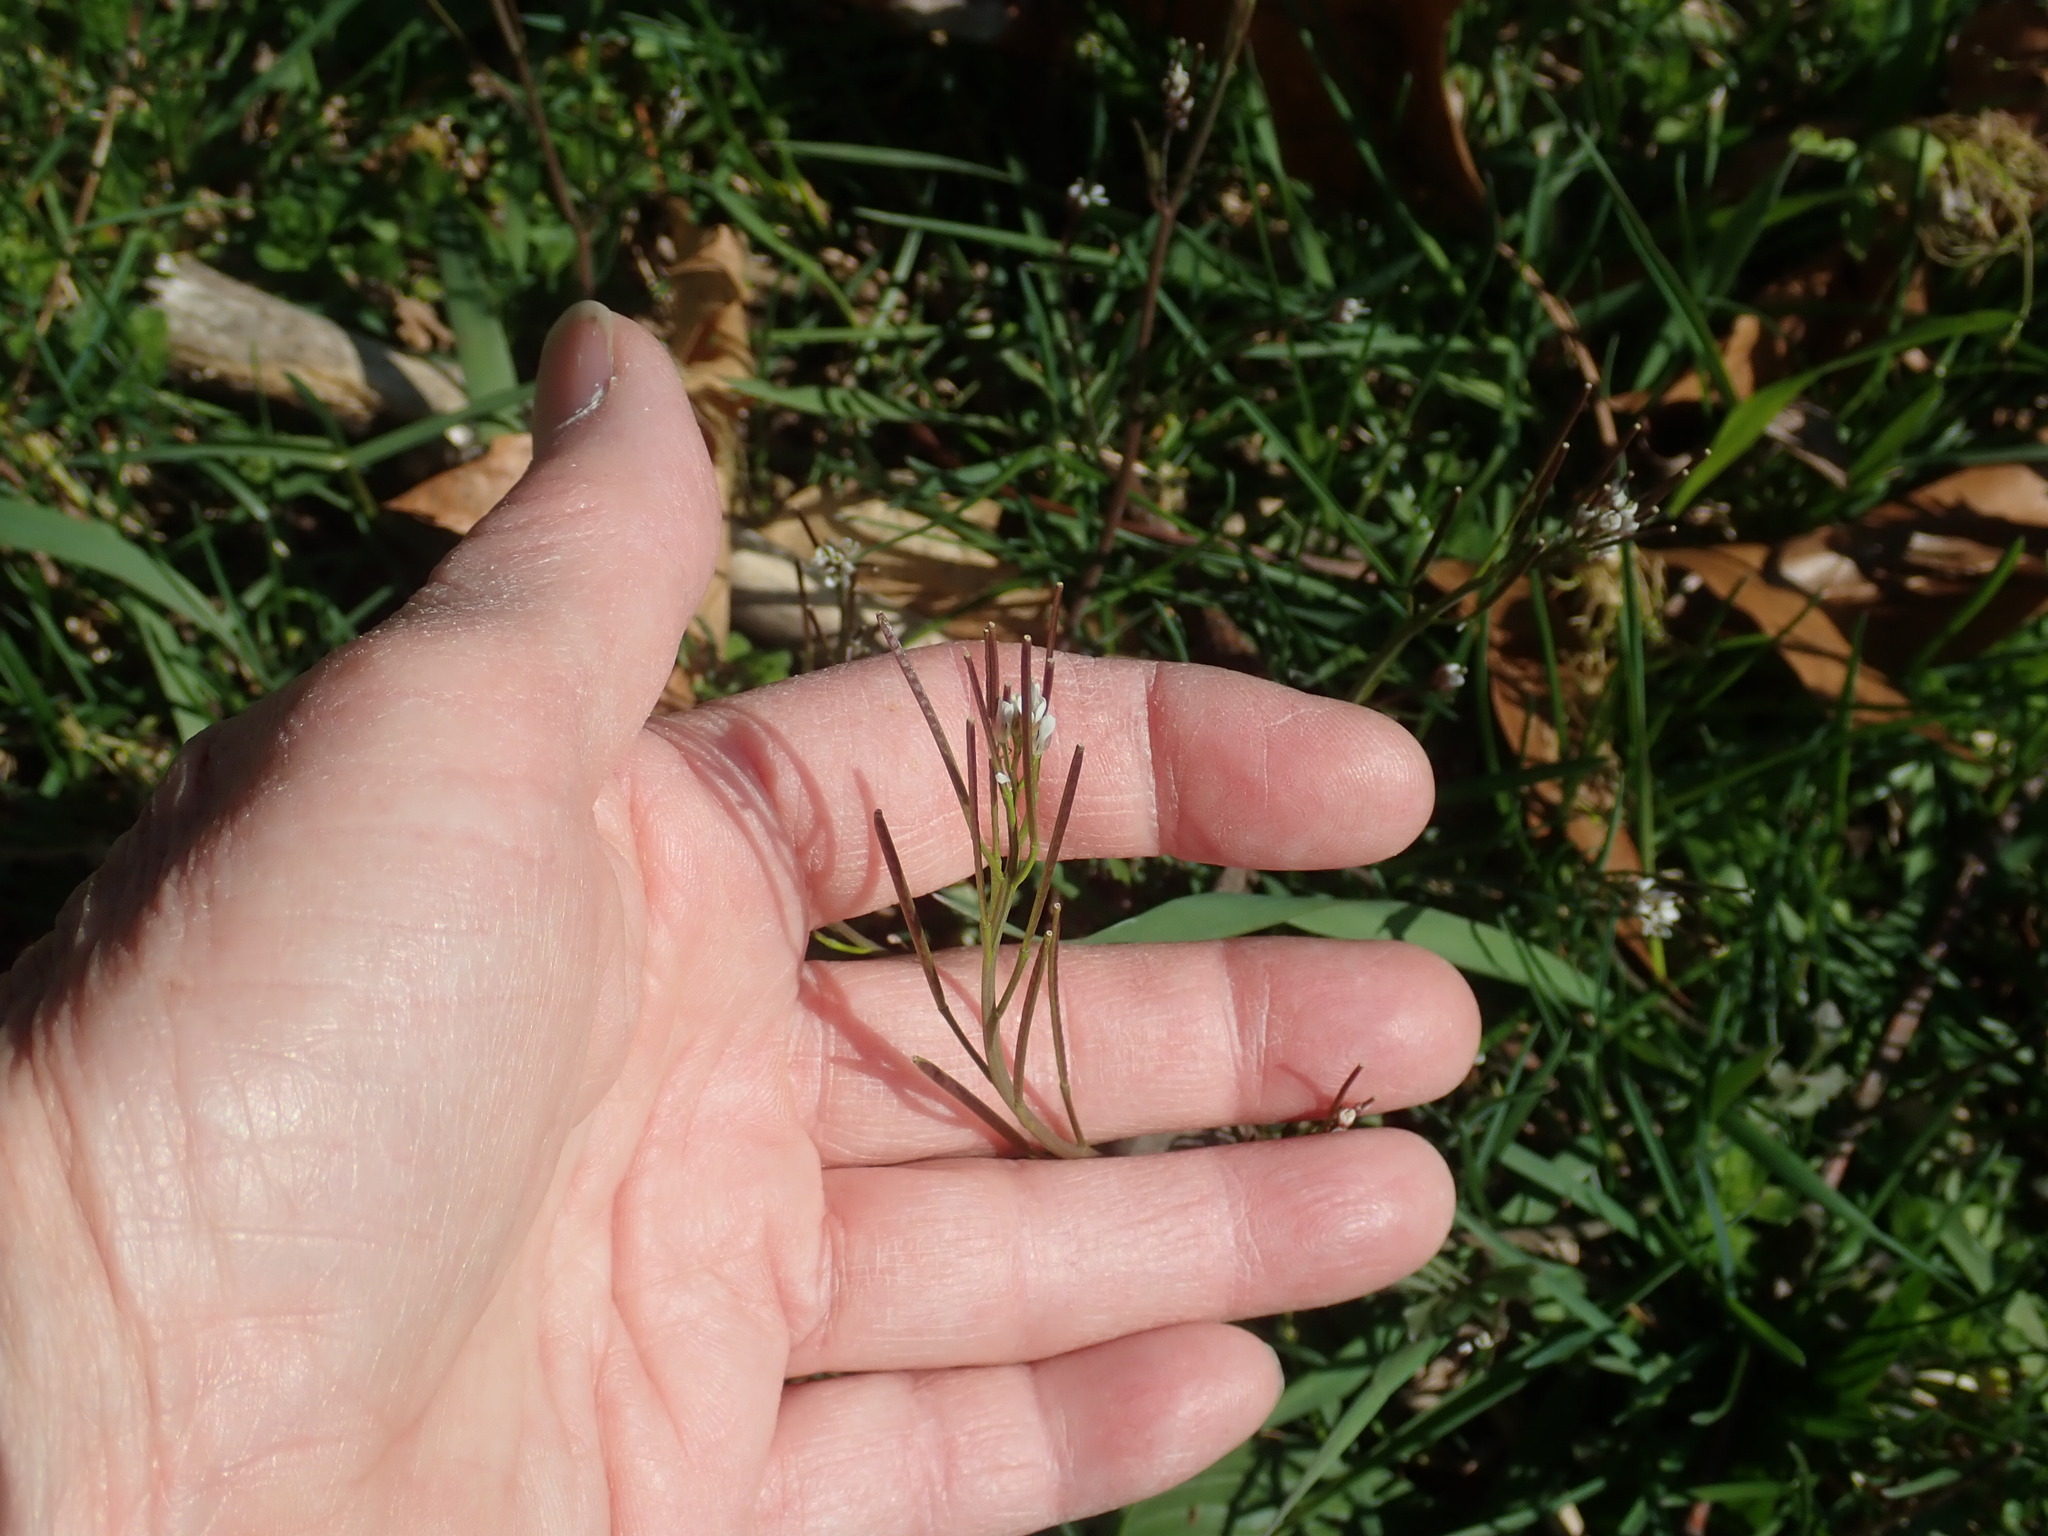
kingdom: Plantae
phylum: Tracheophyta
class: Magnoliopsida
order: Brassicales
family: Brassicaceae
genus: Cardamine
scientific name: Cardamine hirsuta
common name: Hairy bittercress
